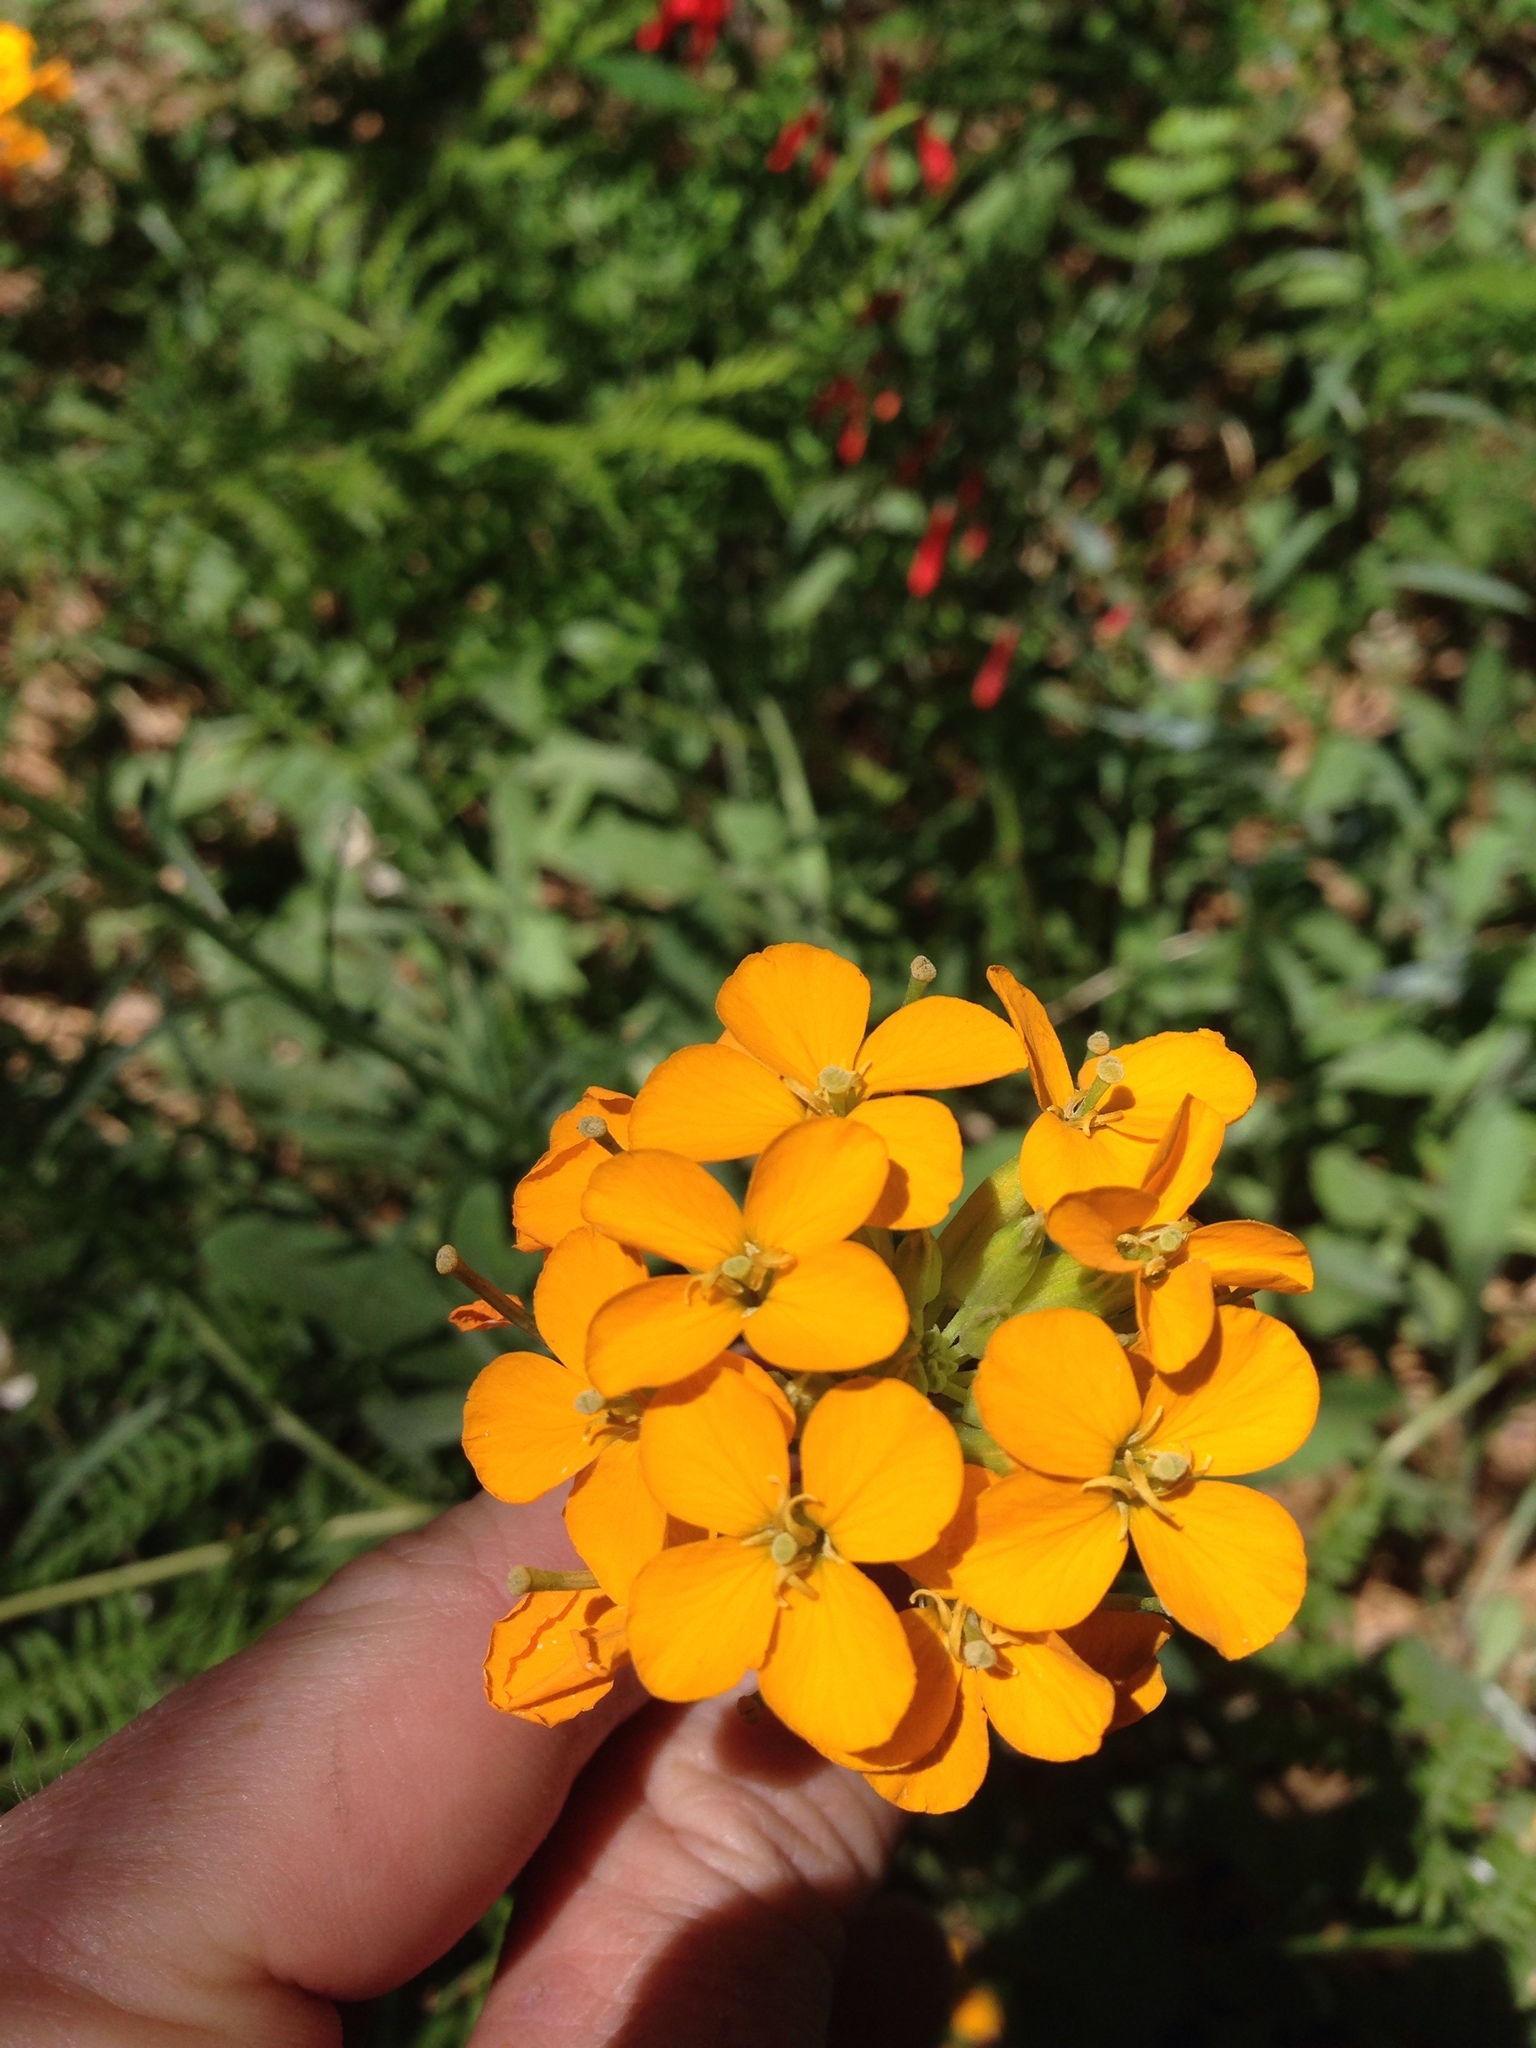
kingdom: Plantae
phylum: Tracheophyta
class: Magnoliopsida
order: Brassicales
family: Brassicaceae
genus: Erysimum
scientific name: Erysimum capitatum
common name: Western wallflower
